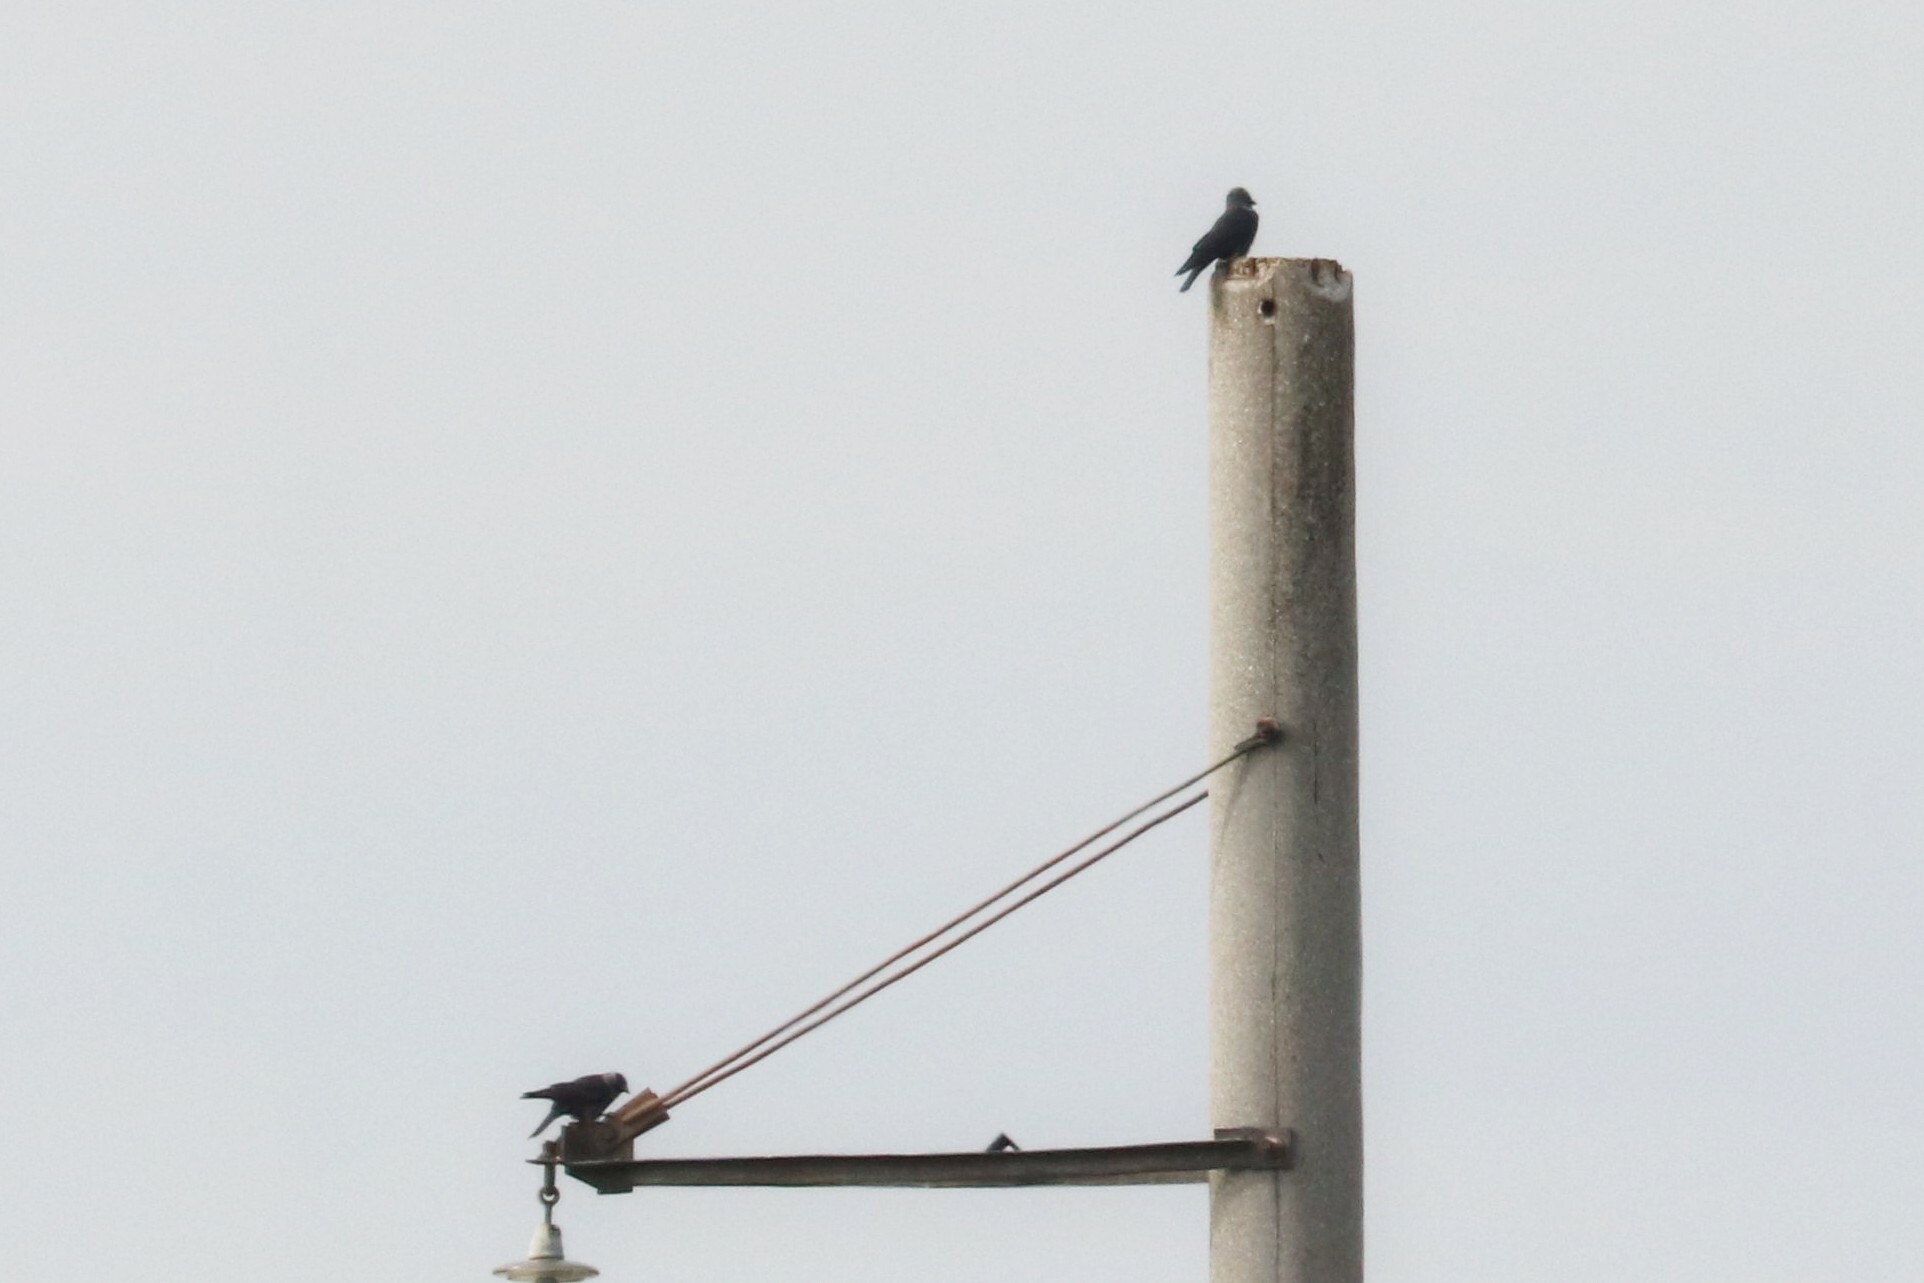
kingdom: Animalia
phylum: Chordata
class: Aves
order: Passeriformes
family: Corvidae
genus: Coloeus
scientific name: Coloeus monedula
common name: Western jackdaw
